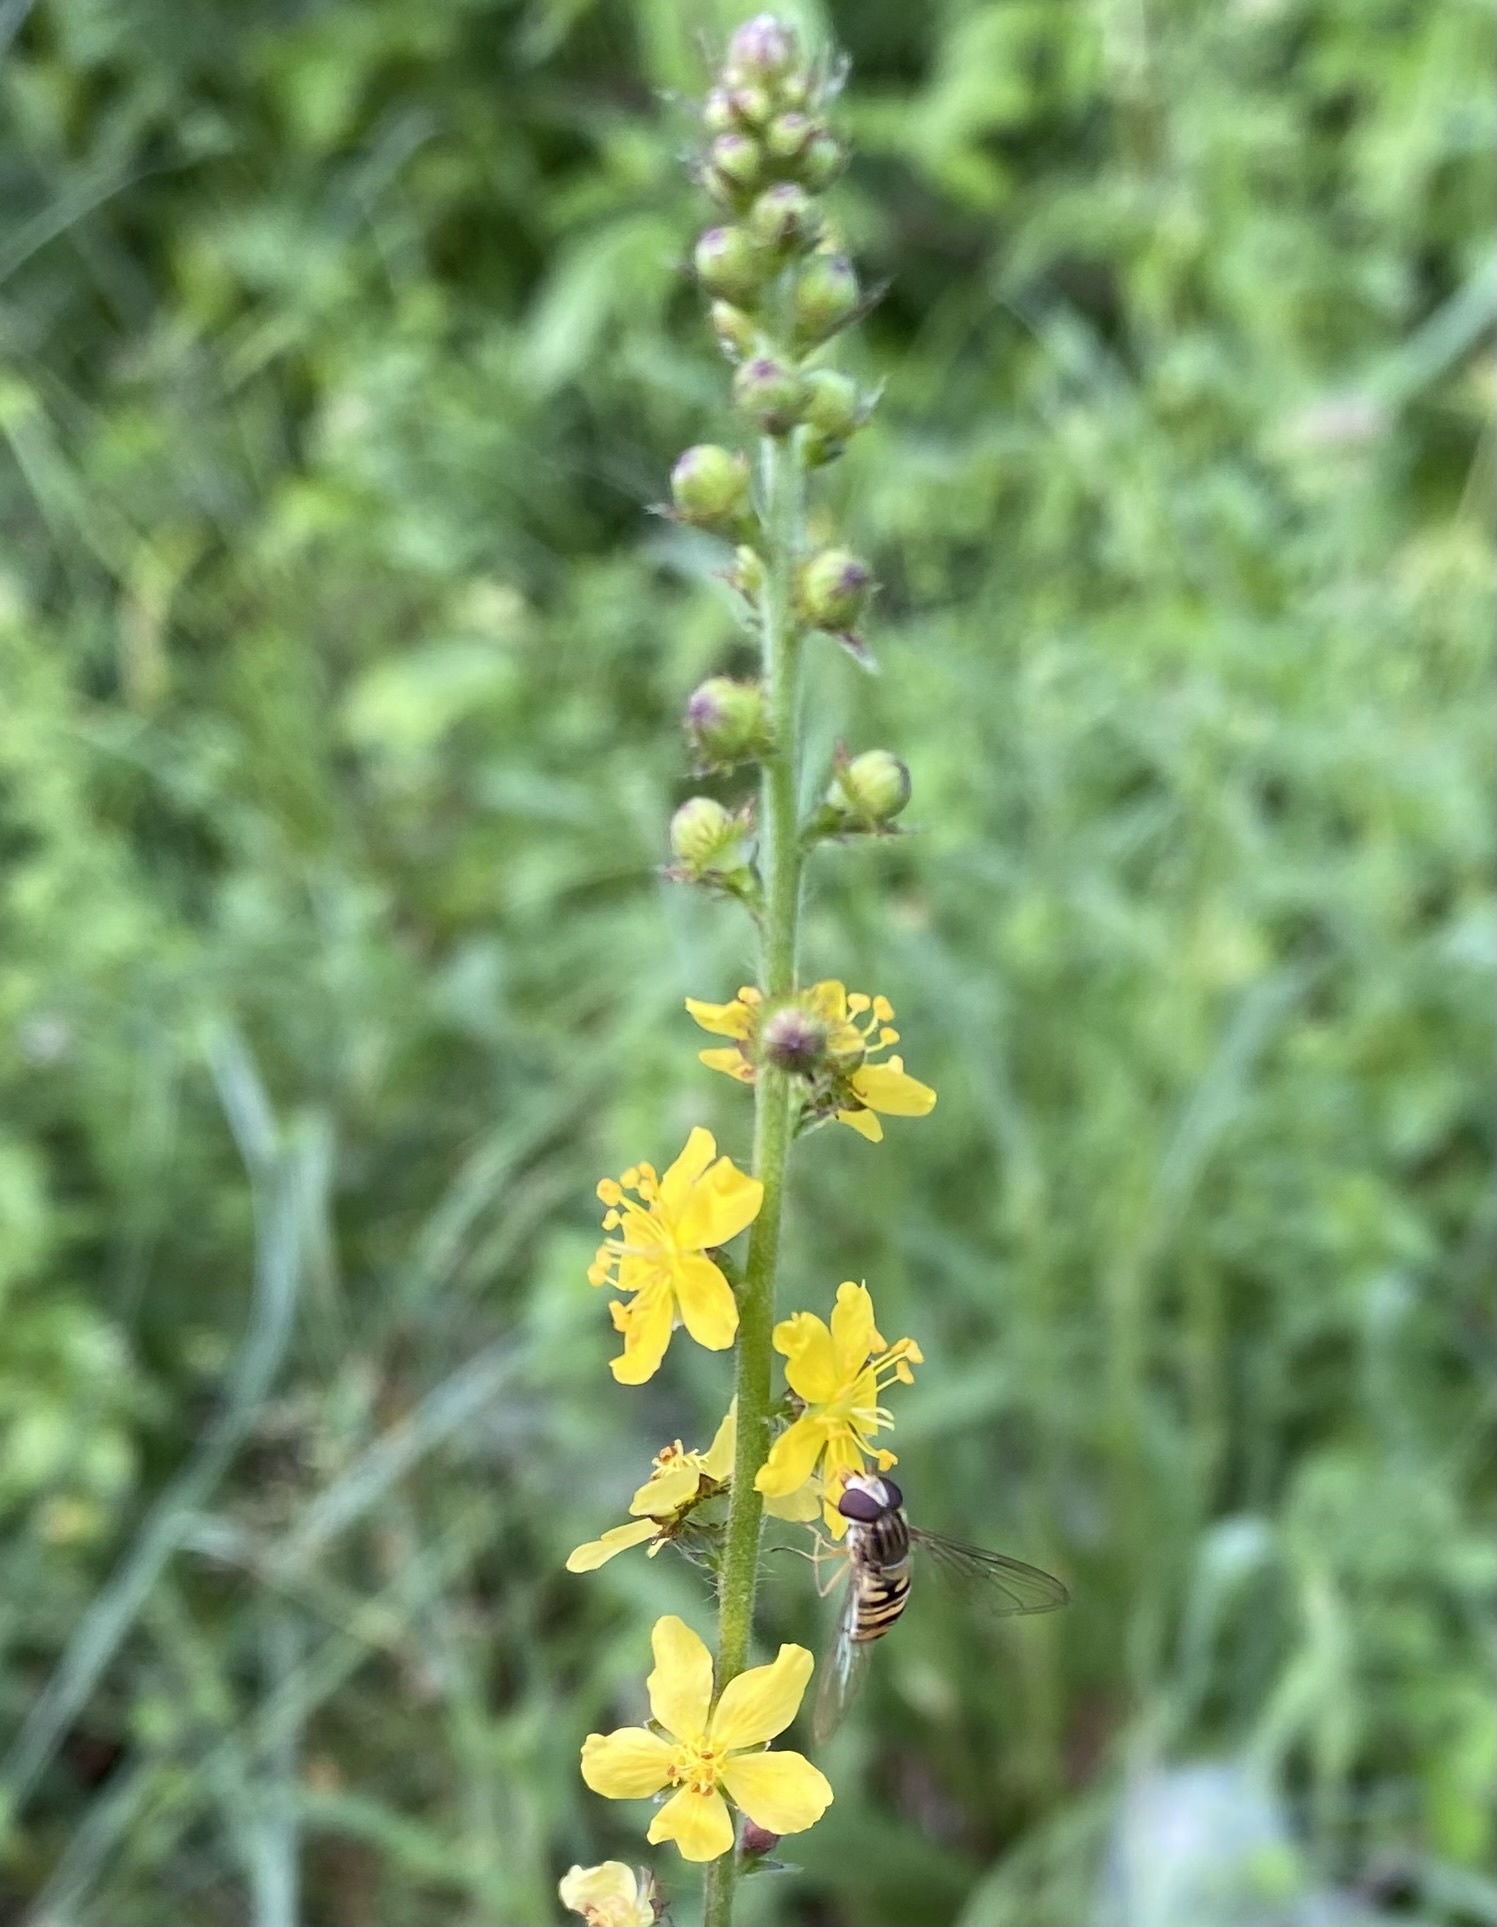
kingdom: Plantae
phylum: Tracheophyta
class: Magnoliopsida
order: Rosales
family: Rosaceae
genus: Agrimonia
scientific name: Agrimonia eupatoria
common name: Agrimony
